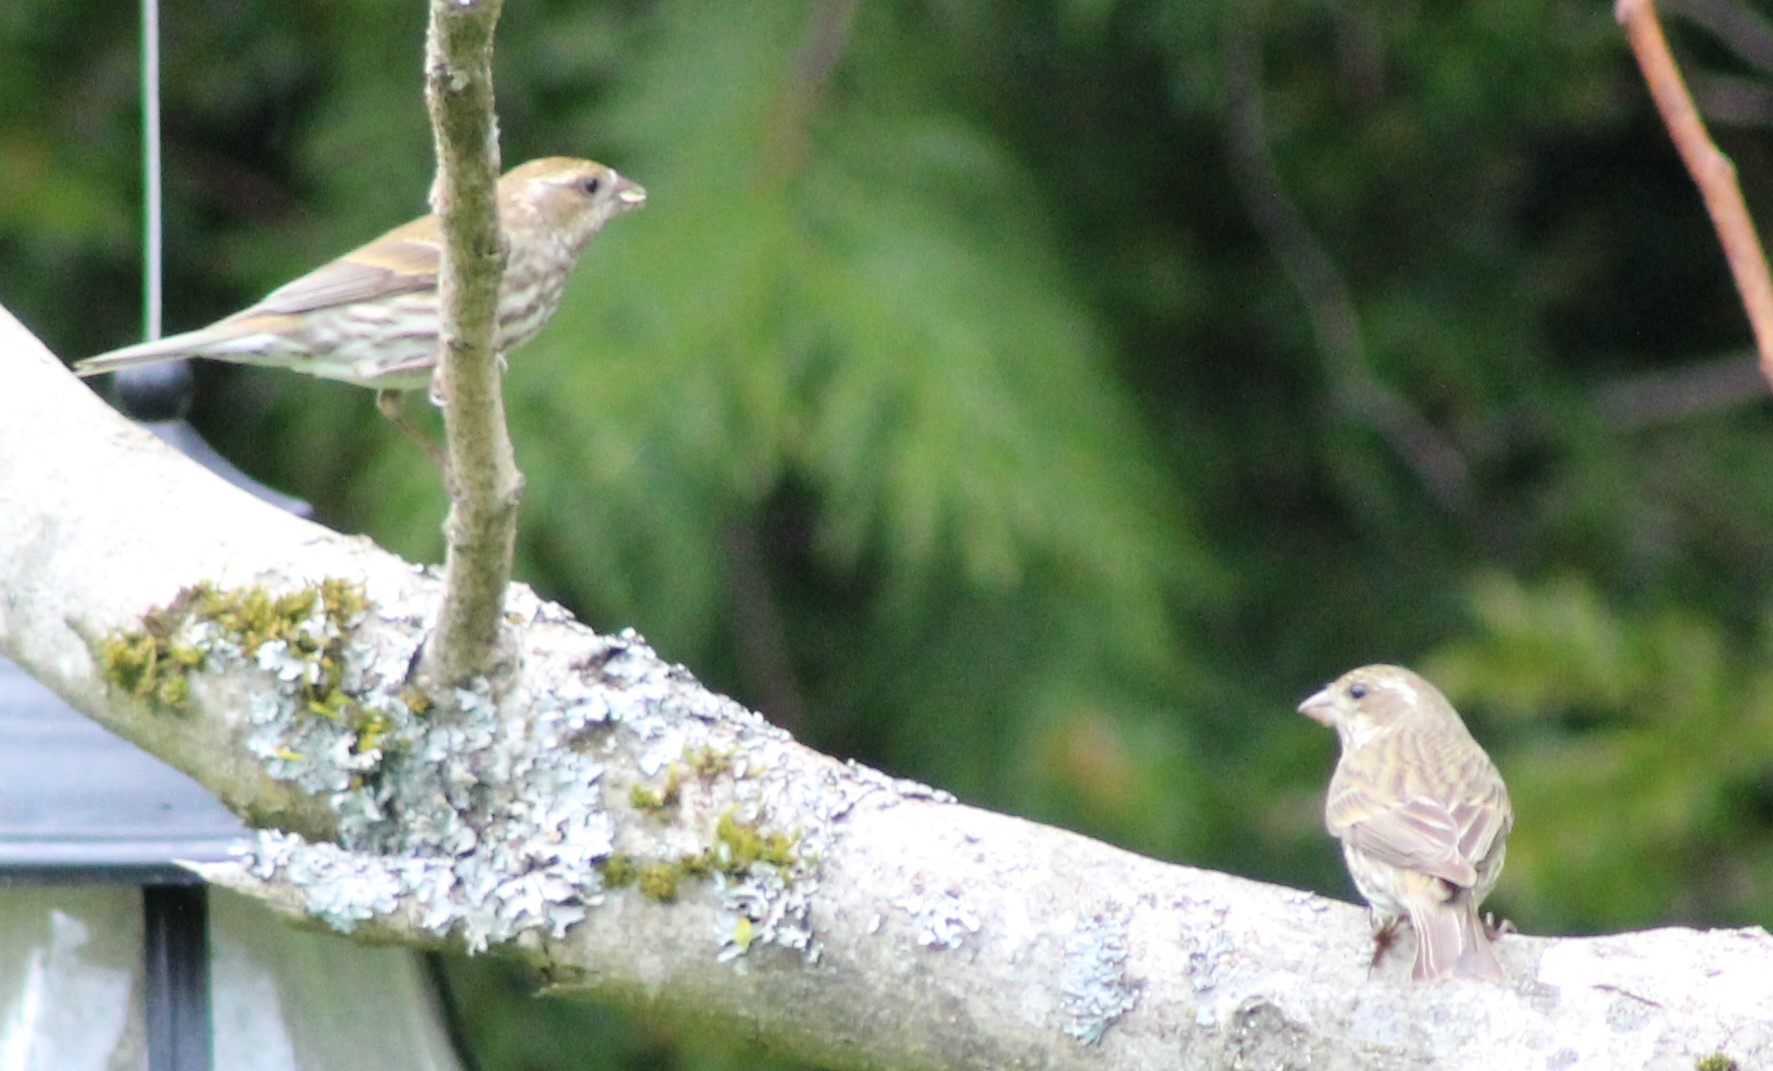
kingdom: Animalia
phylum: Chordata
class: Aves
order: Passeriformes
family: Fringillidae
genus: Haemorhous
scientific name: Haemorhous purpureus
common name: Purple finch
